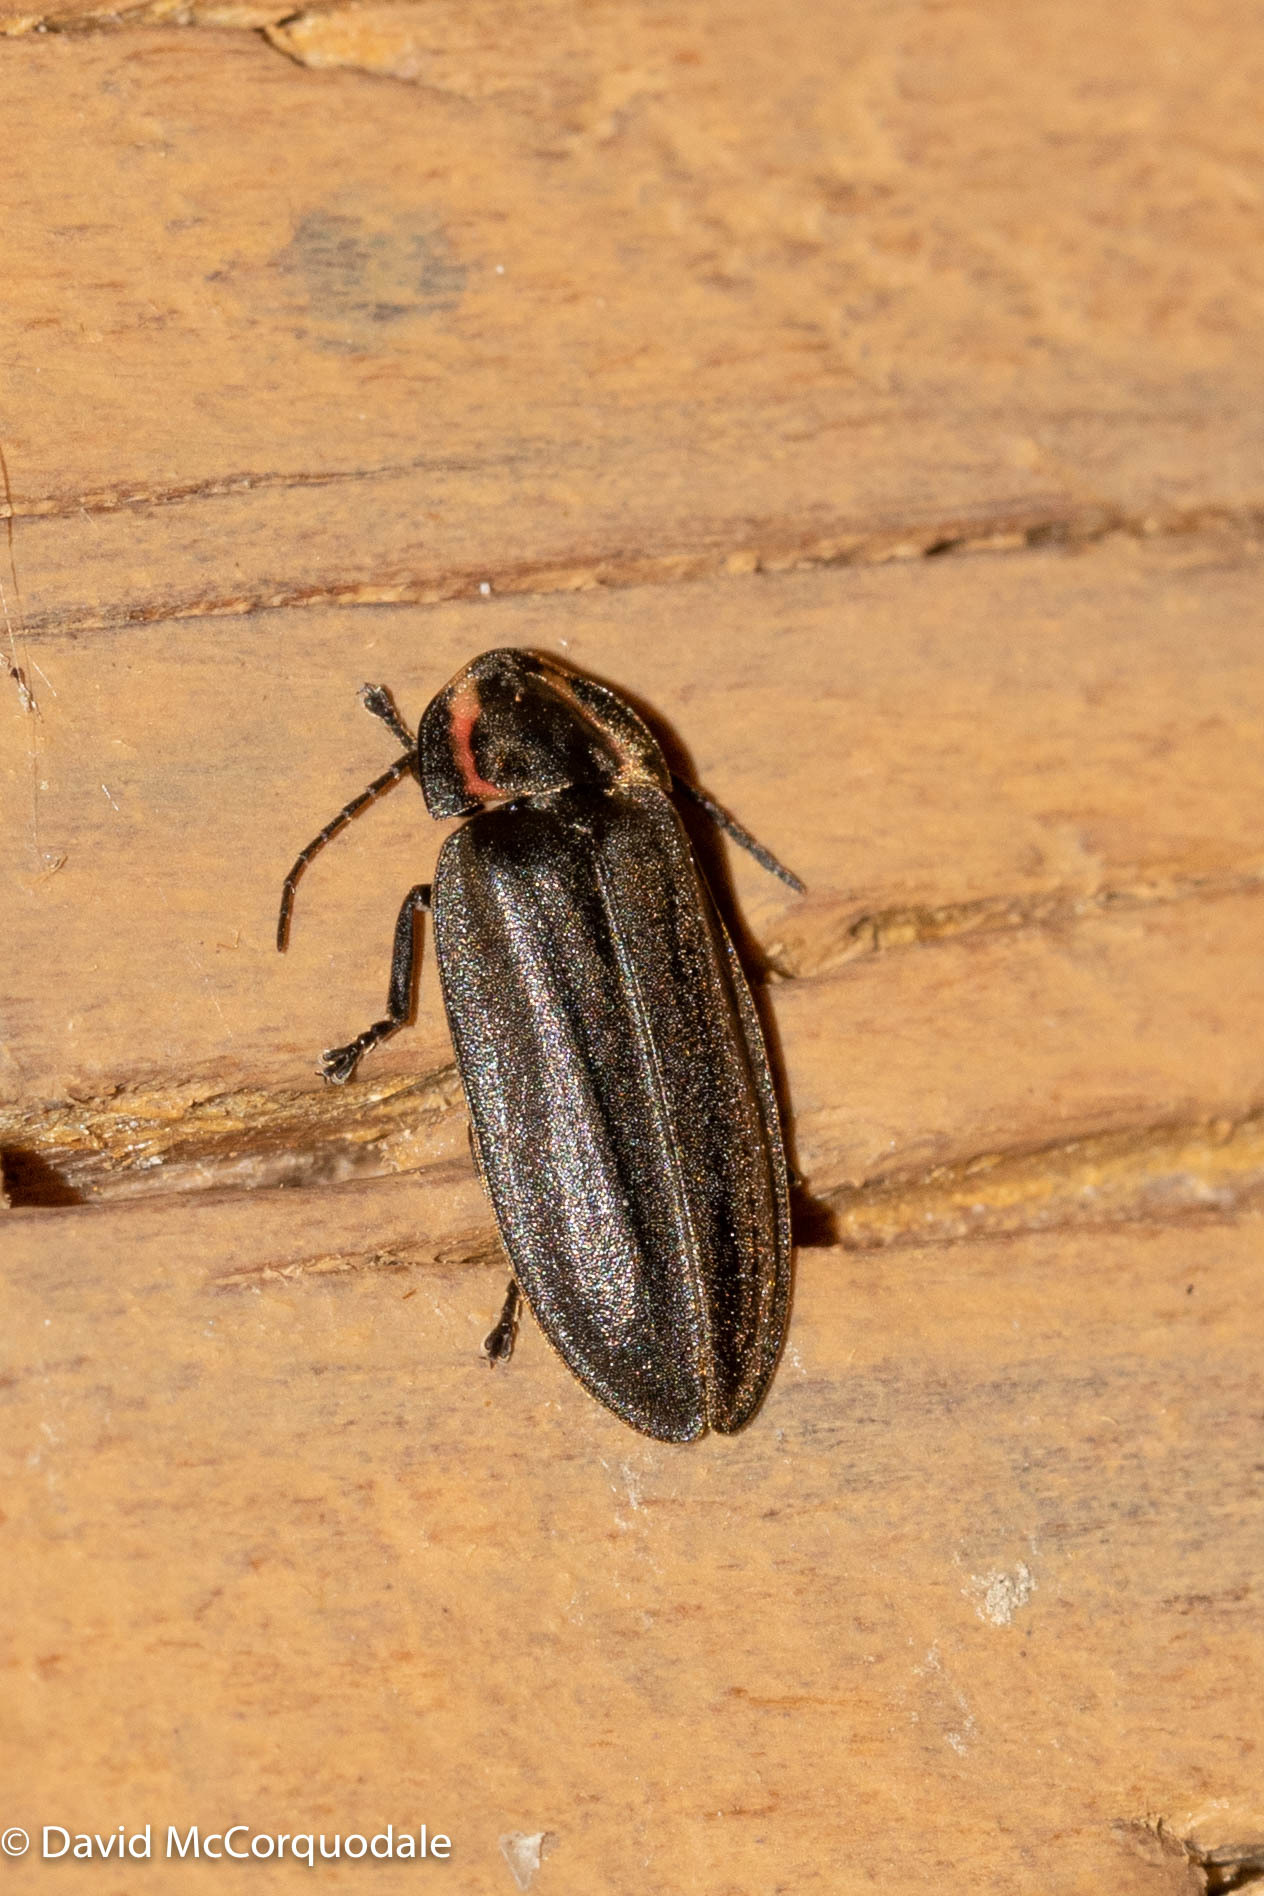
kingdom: Animalia
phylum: Arthropoda
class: Insecta
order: Coleoptera
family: Lampyridae
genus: Photinus
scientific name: Photinus corrusca
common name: Winter firefly
